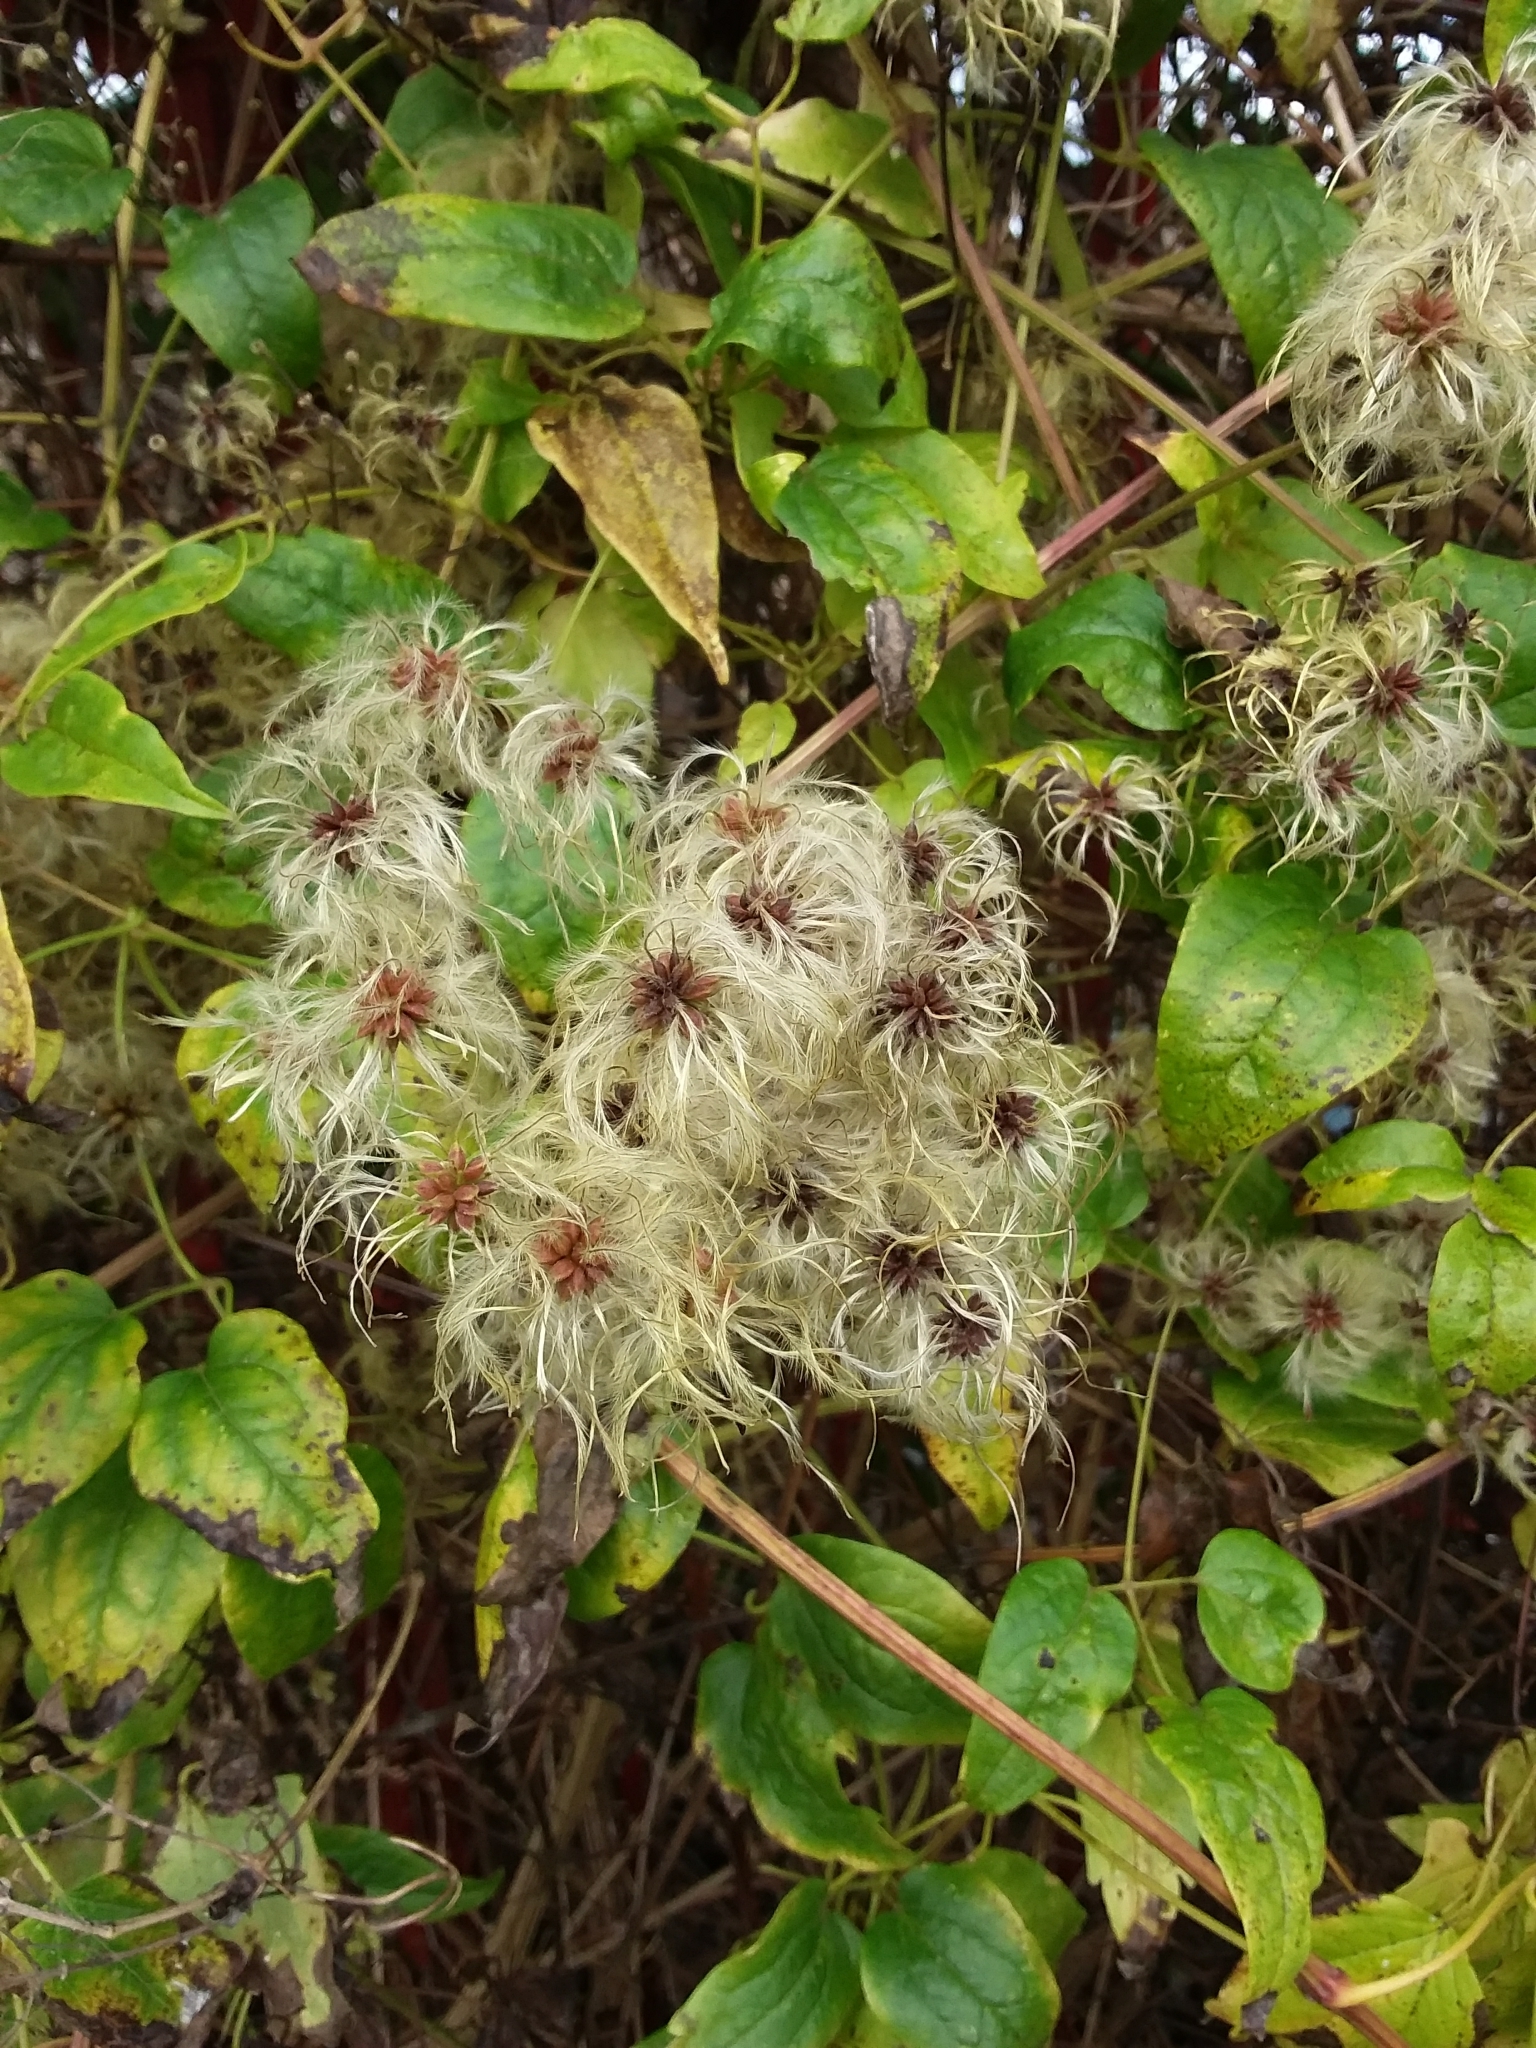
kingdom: Plantae
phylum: Tracheophyta
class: Magnoliopsida
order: Ranunculales
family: Ranunculaceae
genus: Clematis
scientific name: Clematis vitalba
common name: Evergreen clematis
